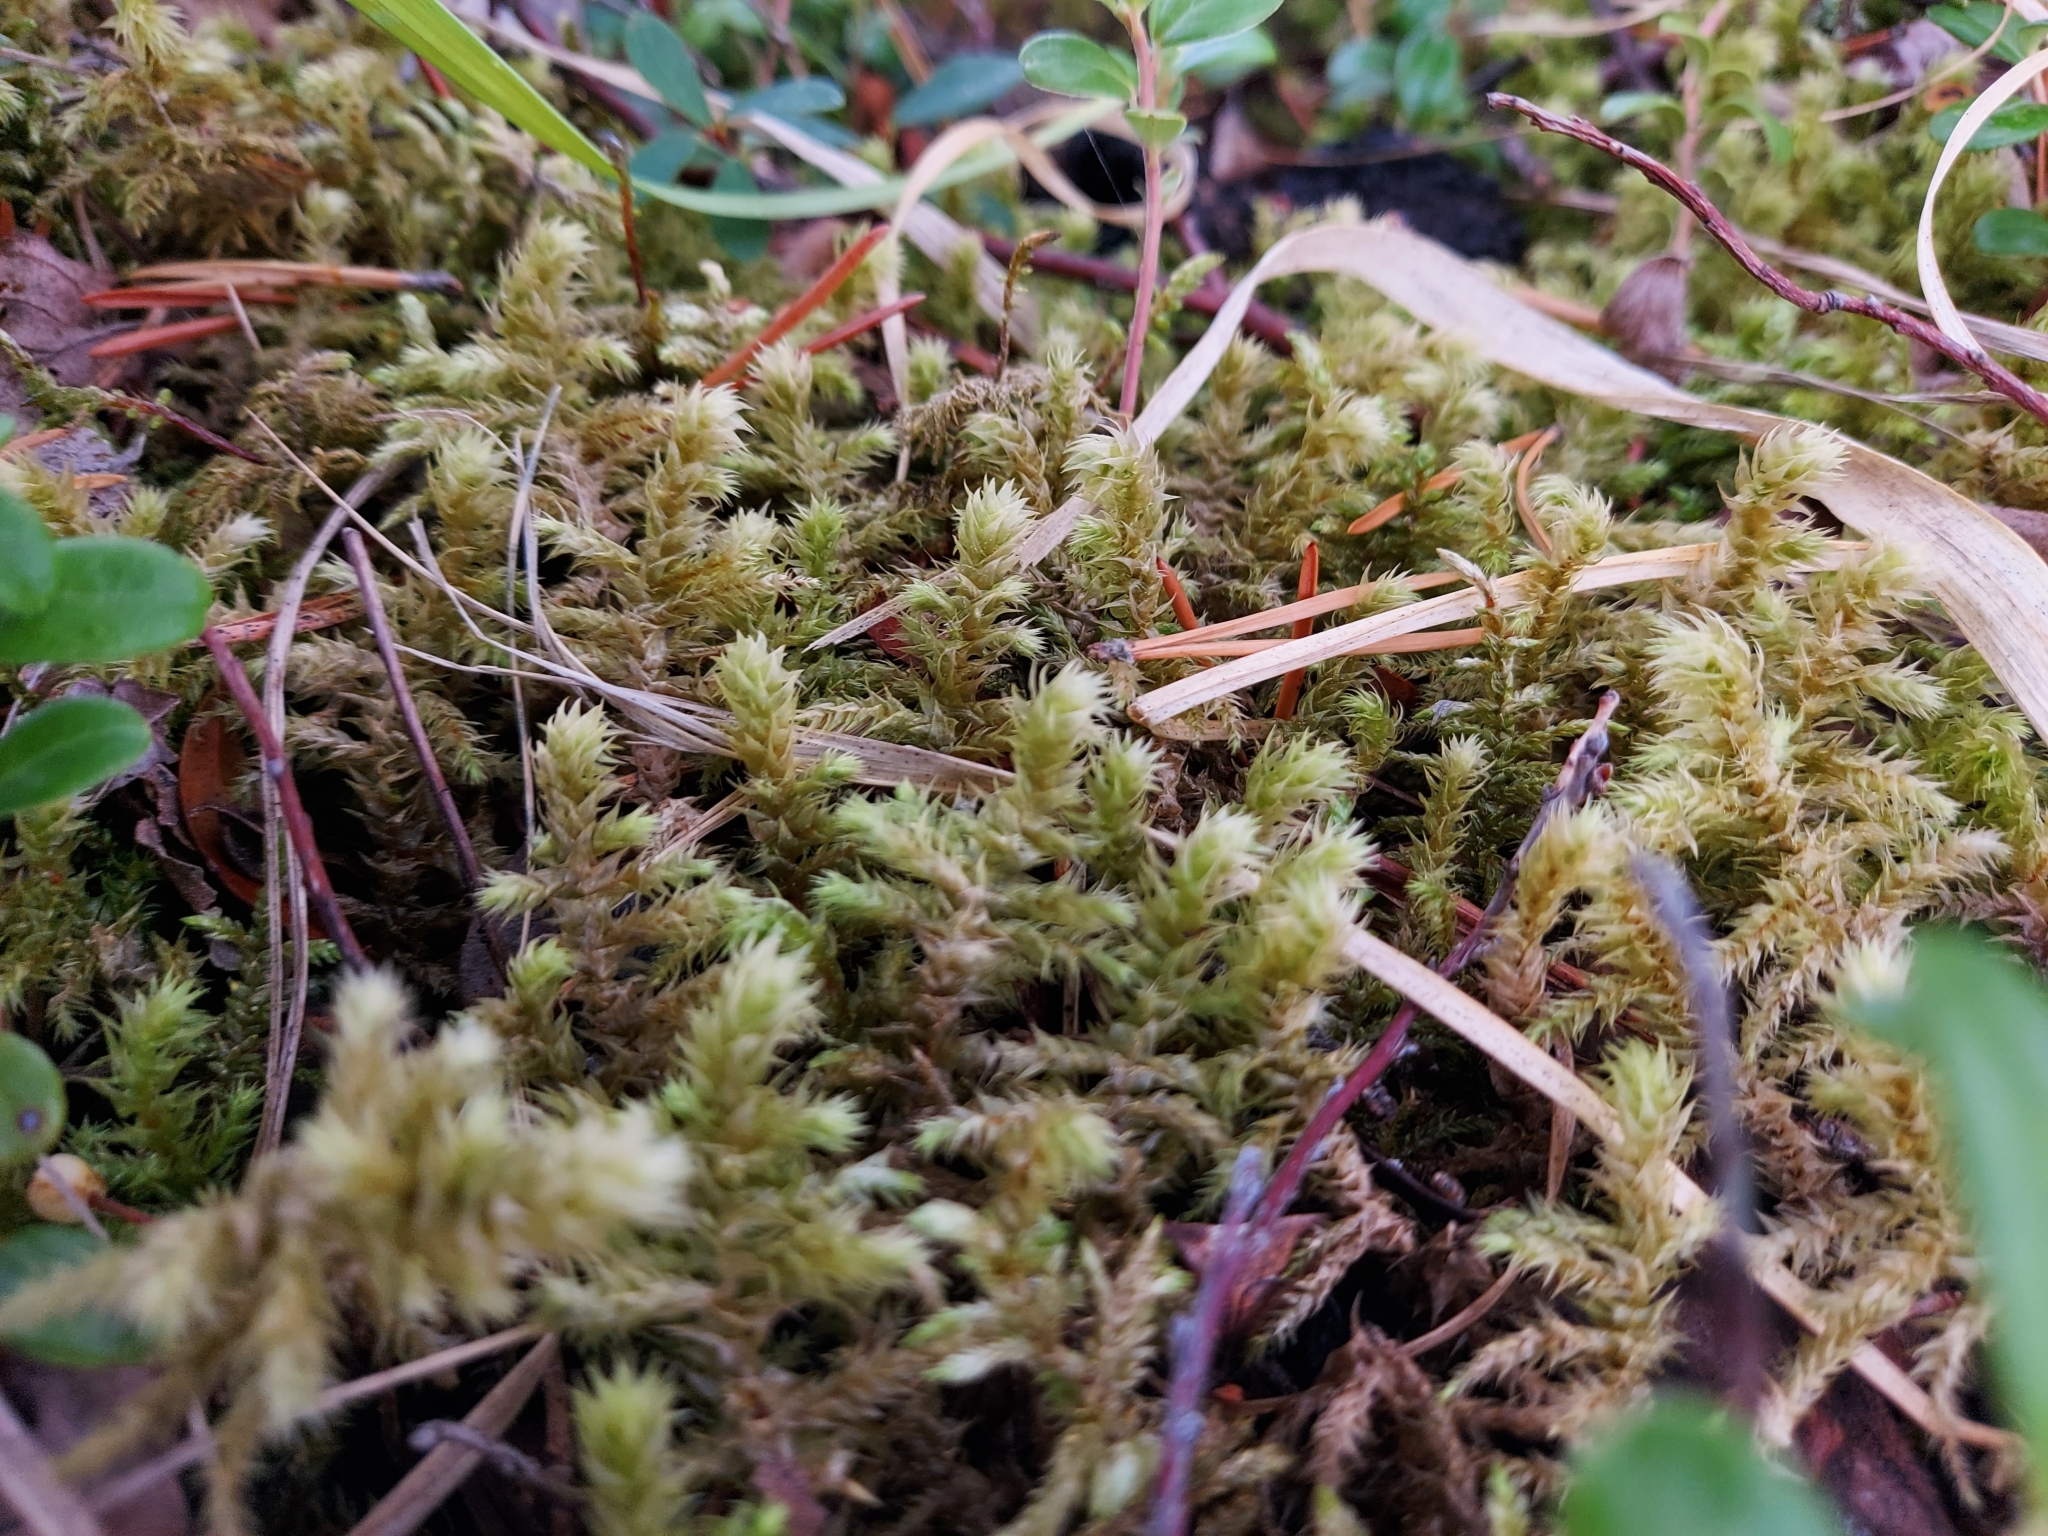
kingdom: Plantae
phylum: Bryophyta
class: Bryopsida
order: Hypnales
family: Hylocomiaceae
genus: Hylocomiadelphus
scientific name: Hylocomiadelphus triquetrus
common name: Rough goose neck moss
